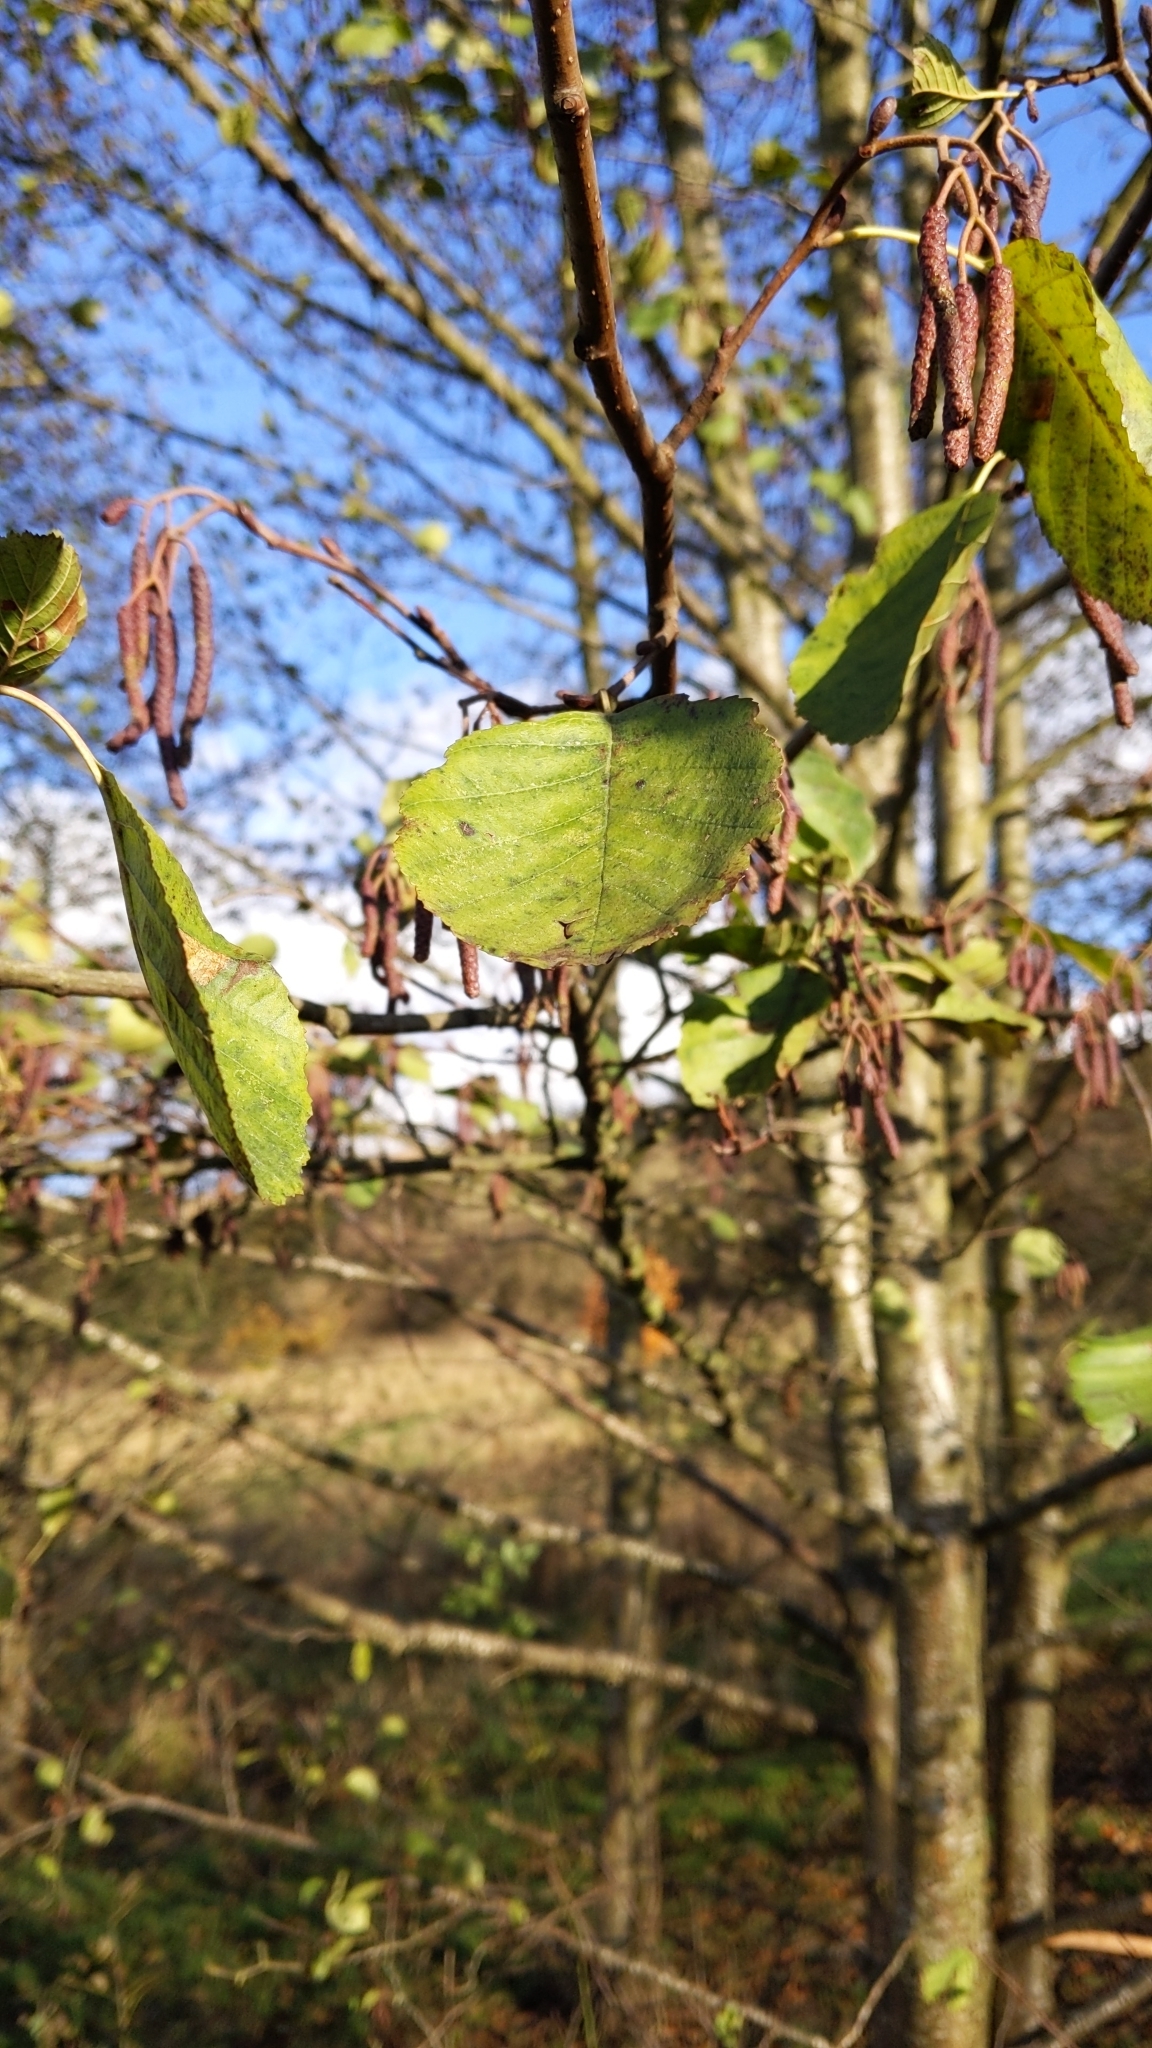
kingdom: Plantae
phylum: Tracheophyta
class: Magnoliopsida
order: Fagales
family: Betulaceae
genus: Alnus
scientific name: Alnus glutinosa
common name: Black alder
